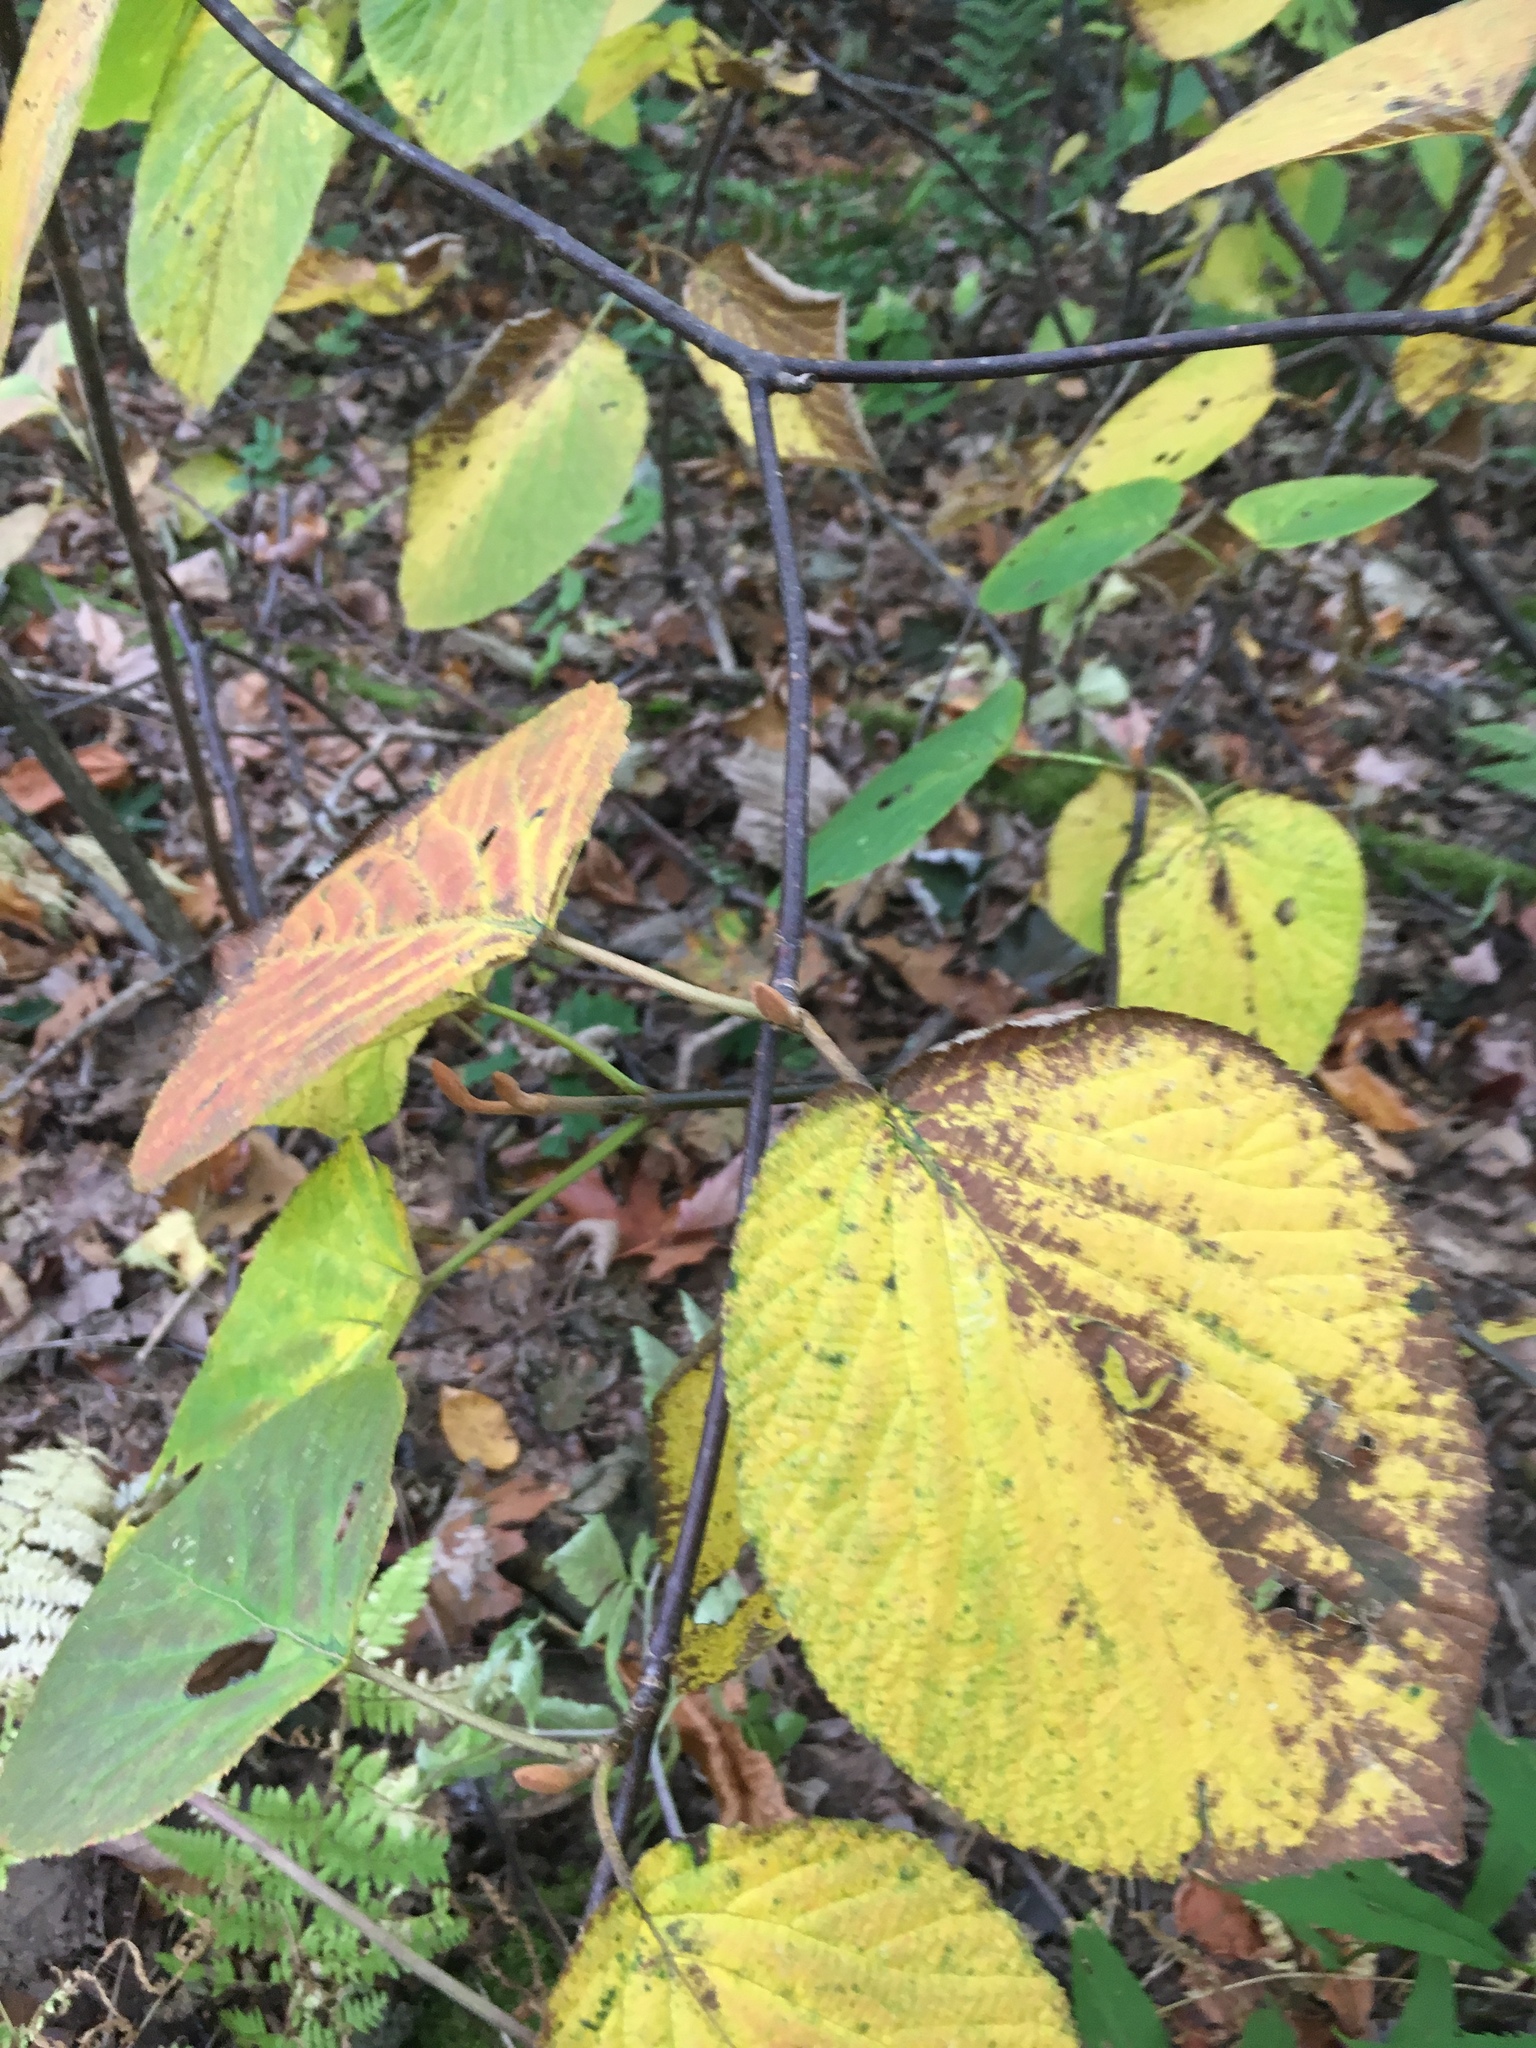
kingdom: Plantae
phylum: Tracheophyta
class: Magnoliopsida
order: Dipsacales
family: Viburnaceae
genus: Viburnum
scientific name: Viburnum lantanoides
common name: Hobblebush
